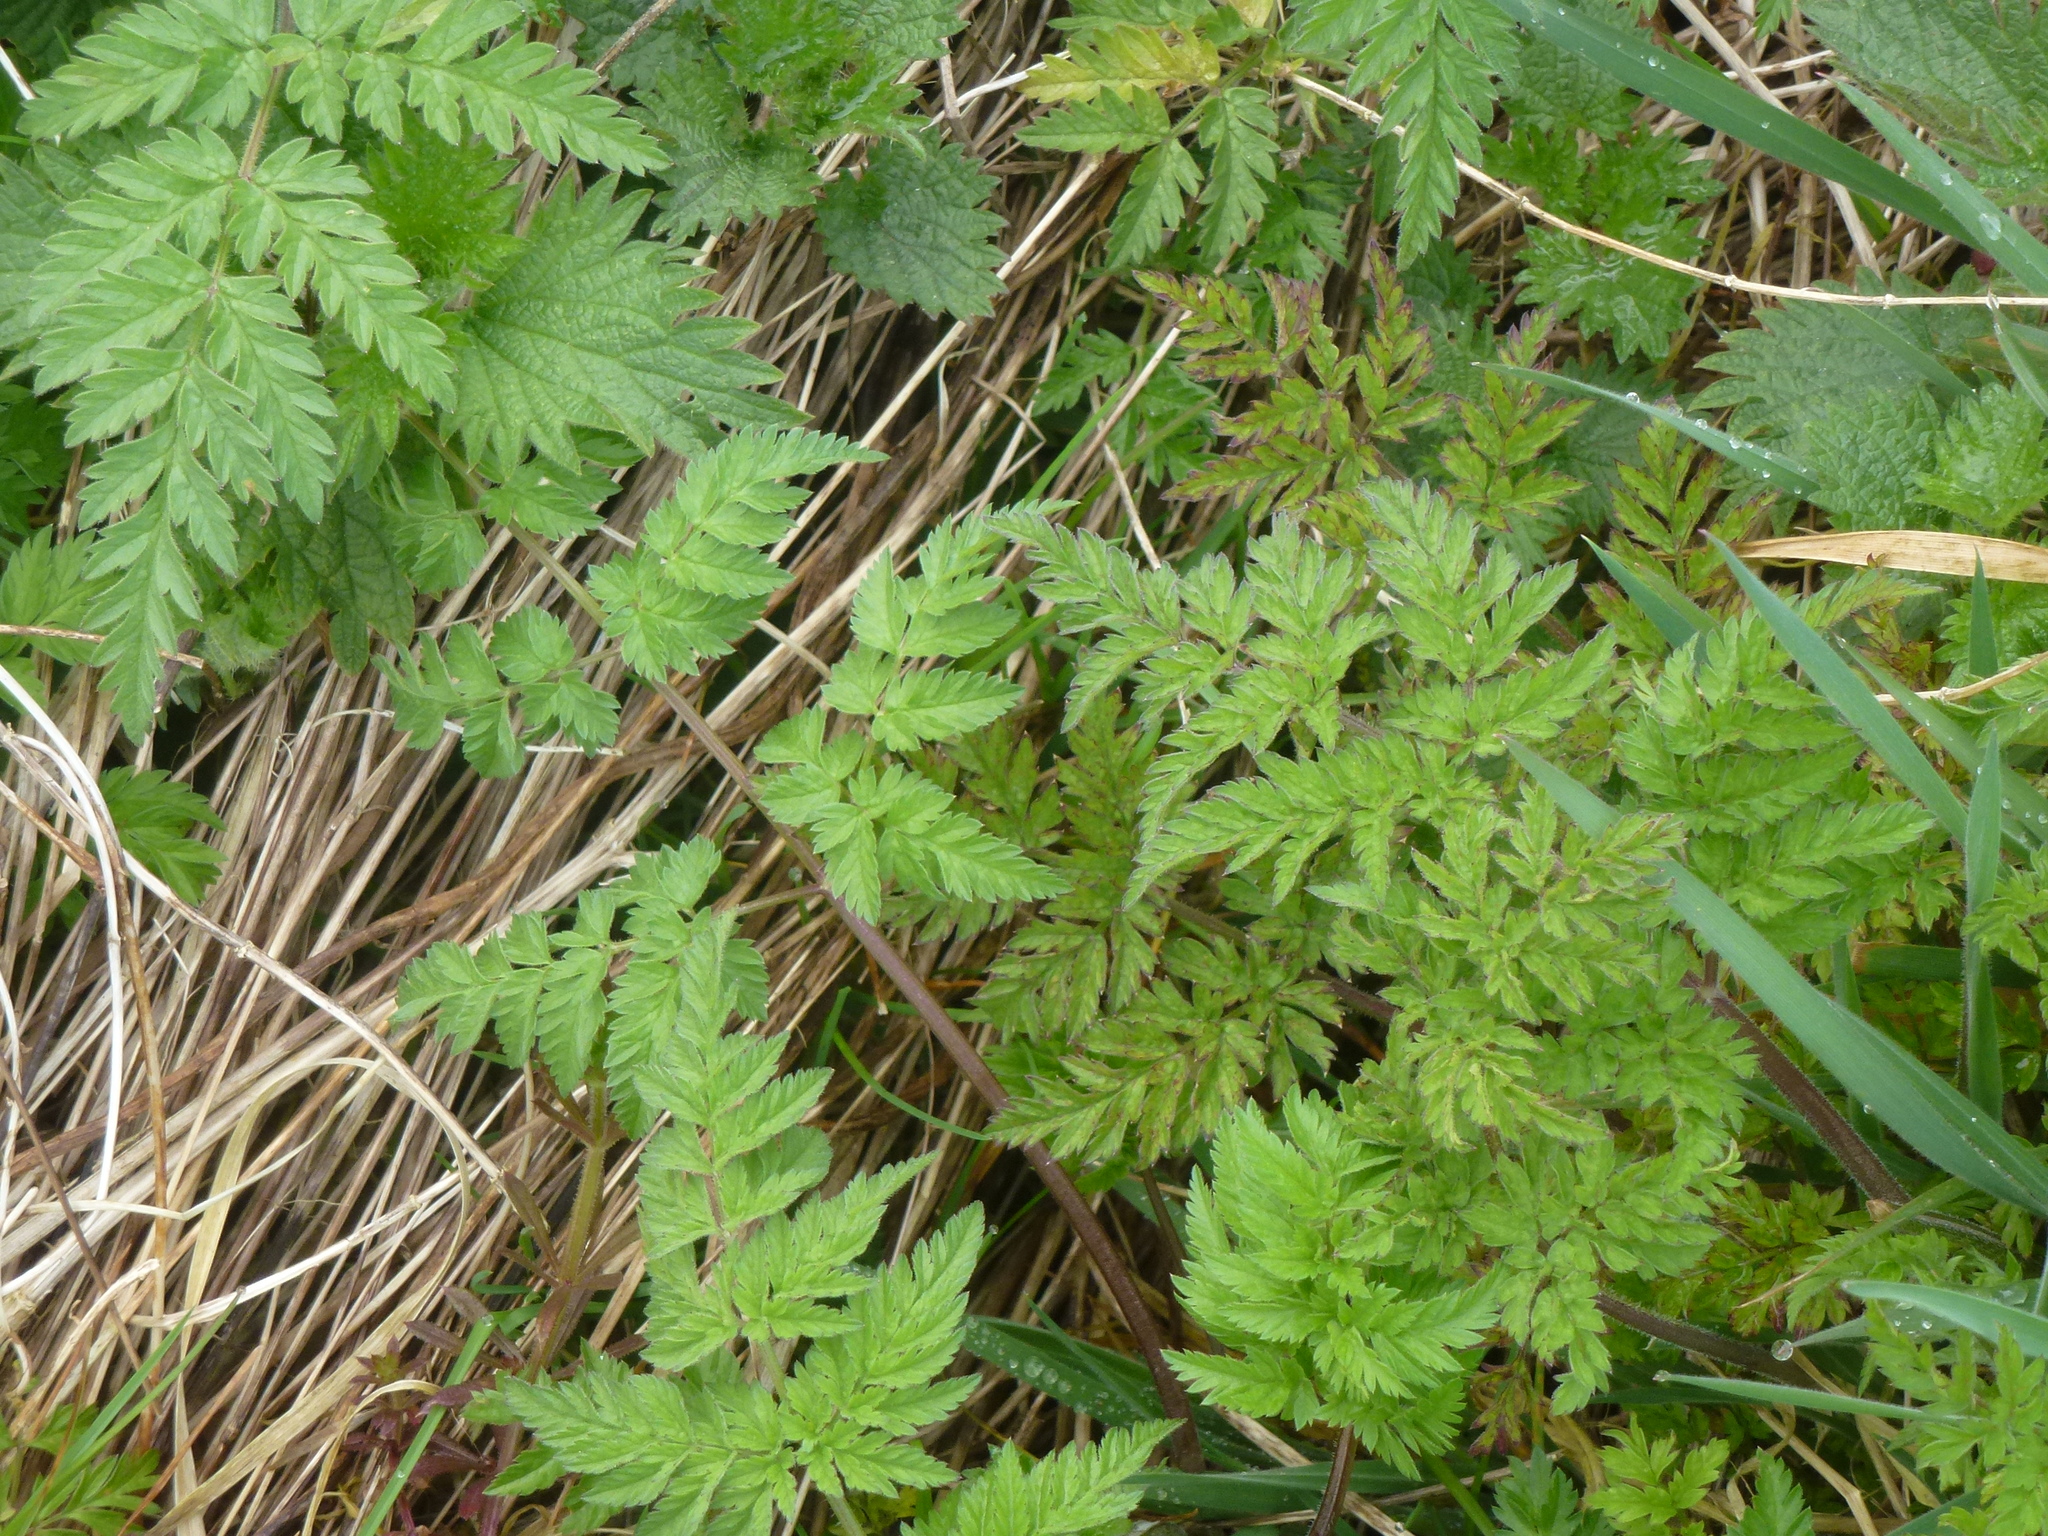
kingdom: Plantae
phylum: Tracheophyta
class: Magnoliopsida
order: Apiales
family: Apiaceae
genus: Anthriscus
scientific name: Anthriscus sylvestris
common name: Cow parsley
